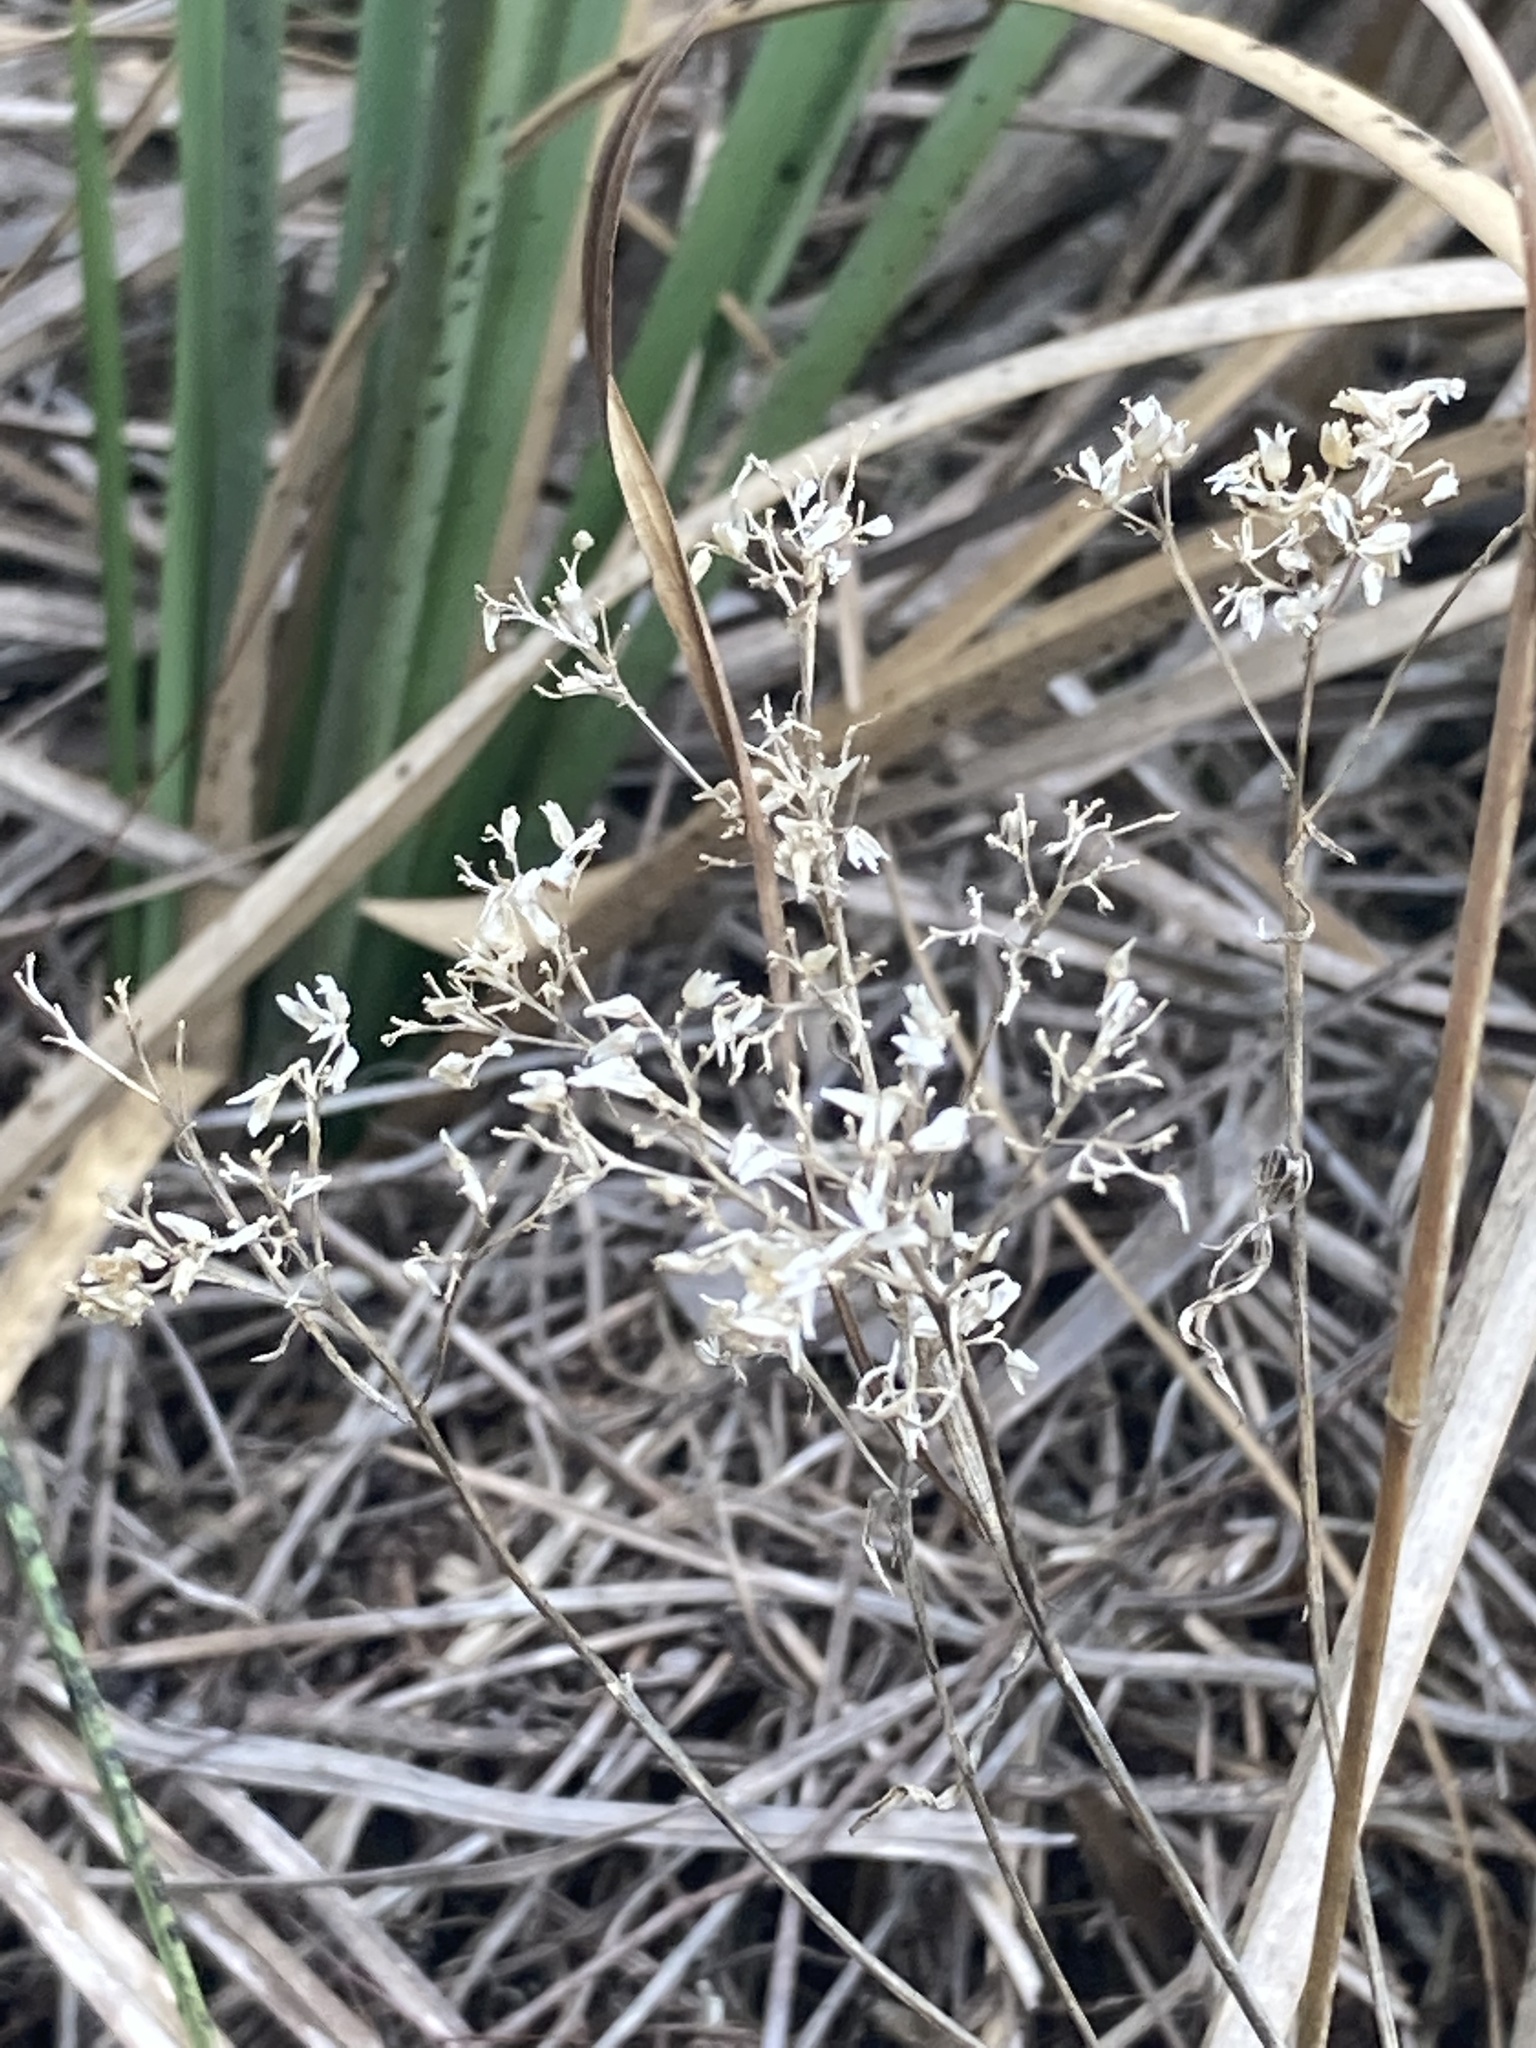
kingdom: Plantae
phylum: Tracheophyta
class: Magnoliopsida
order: Asterales
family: Asteraceae
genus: Flaveria
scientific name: Flaveria linearis
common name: Yellowtop
